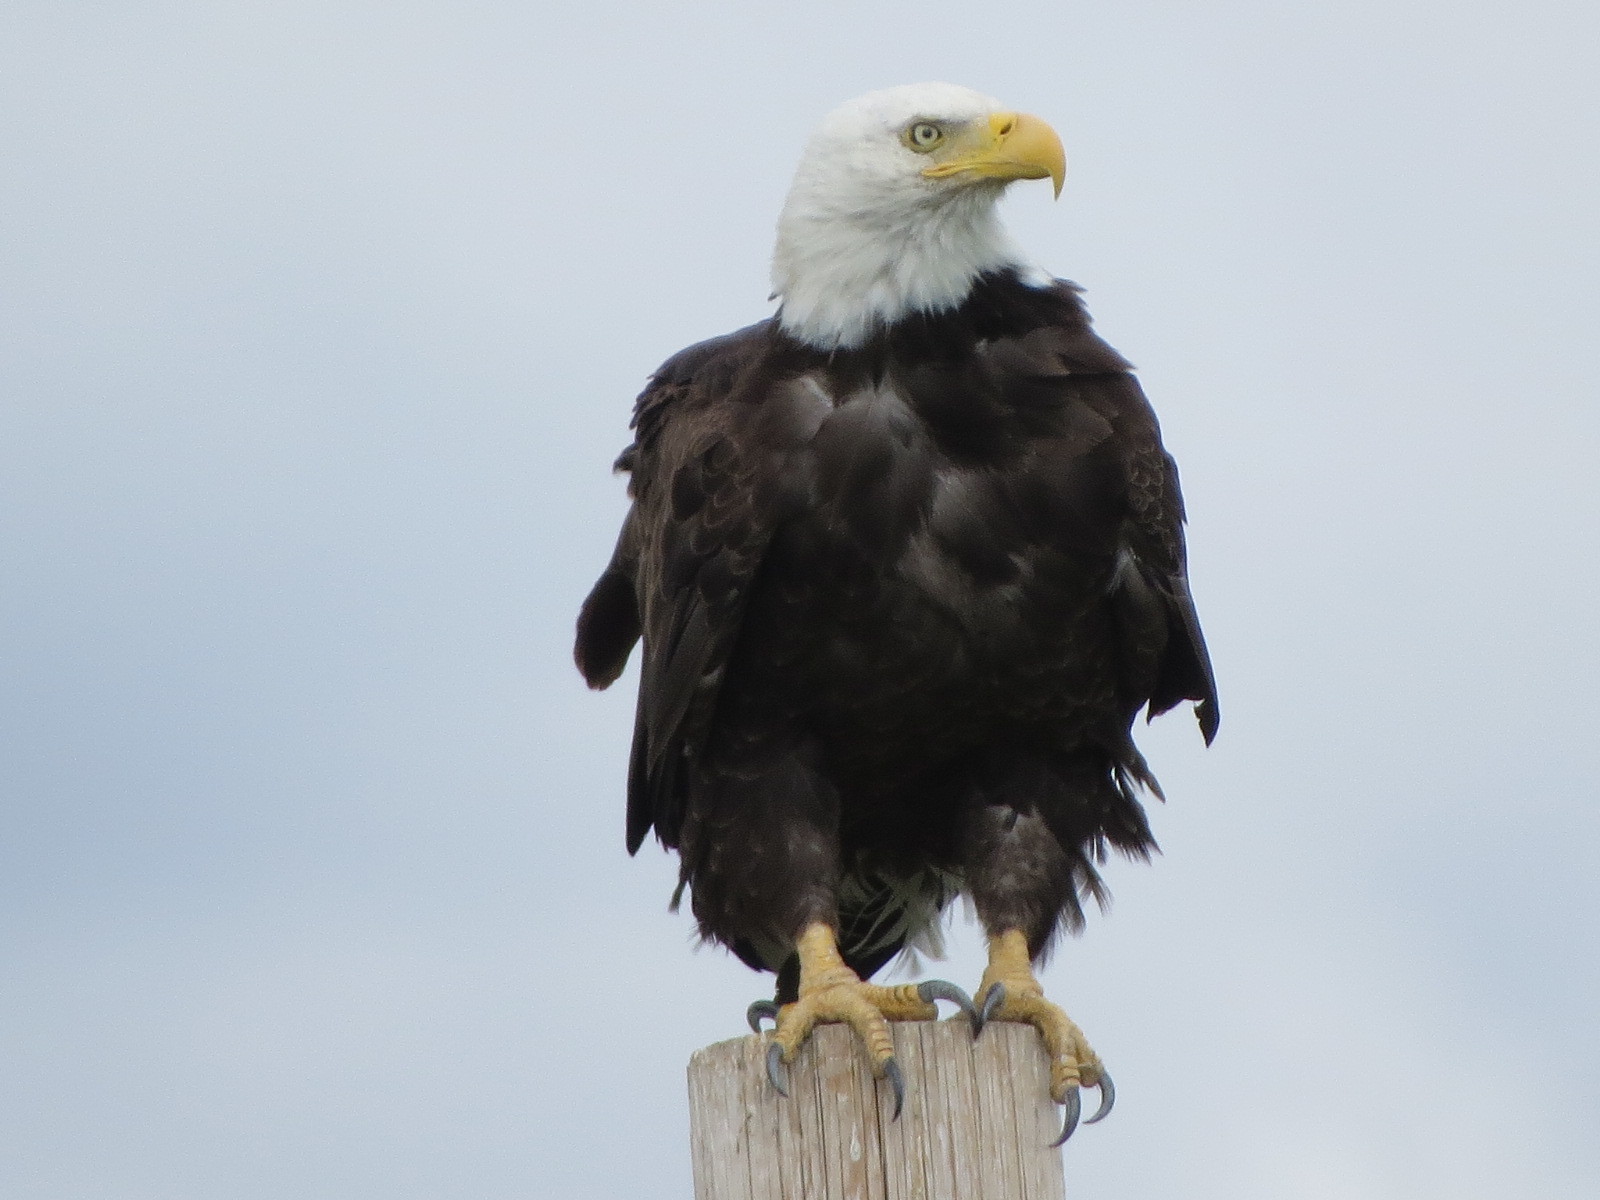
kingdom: Animalia
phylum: Chordata
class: Aves
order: Accipitriformes
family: Accipitridae
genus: Haliaeetus
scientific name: Haliaeetus leucocephalus
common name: Bald eagle
